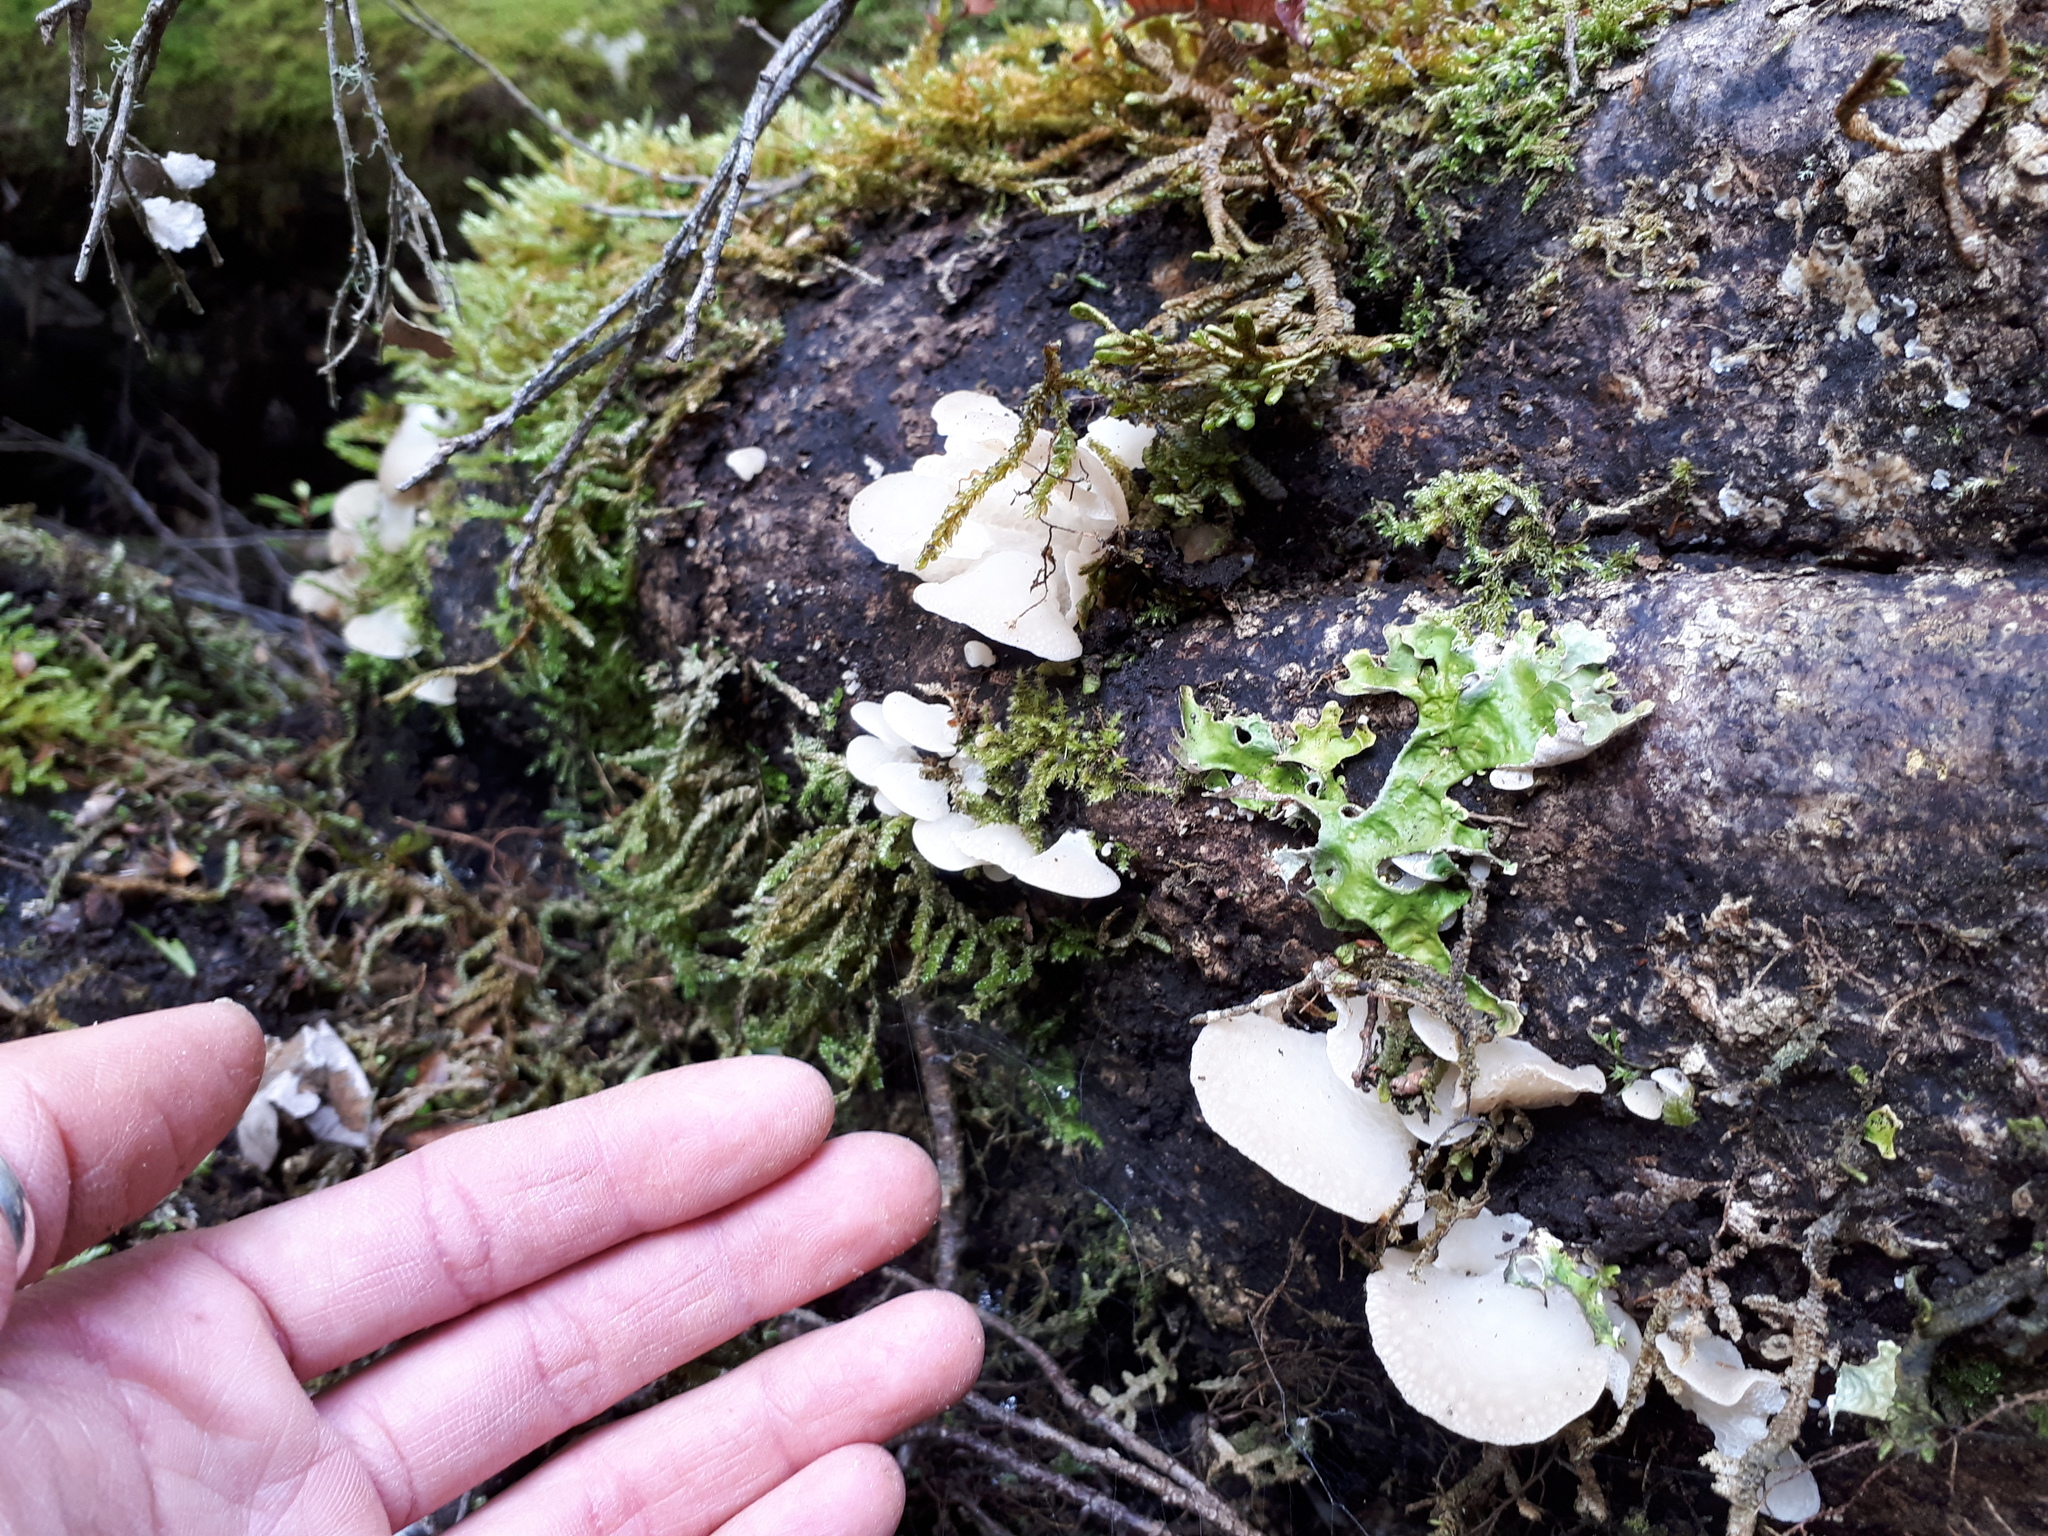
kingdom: Fungi
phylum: Basidiomycota
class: Agaricomycetes
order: Agaricales
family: Mycenaceae
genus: Favolaschia
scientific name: Favolaschia pustulosa
